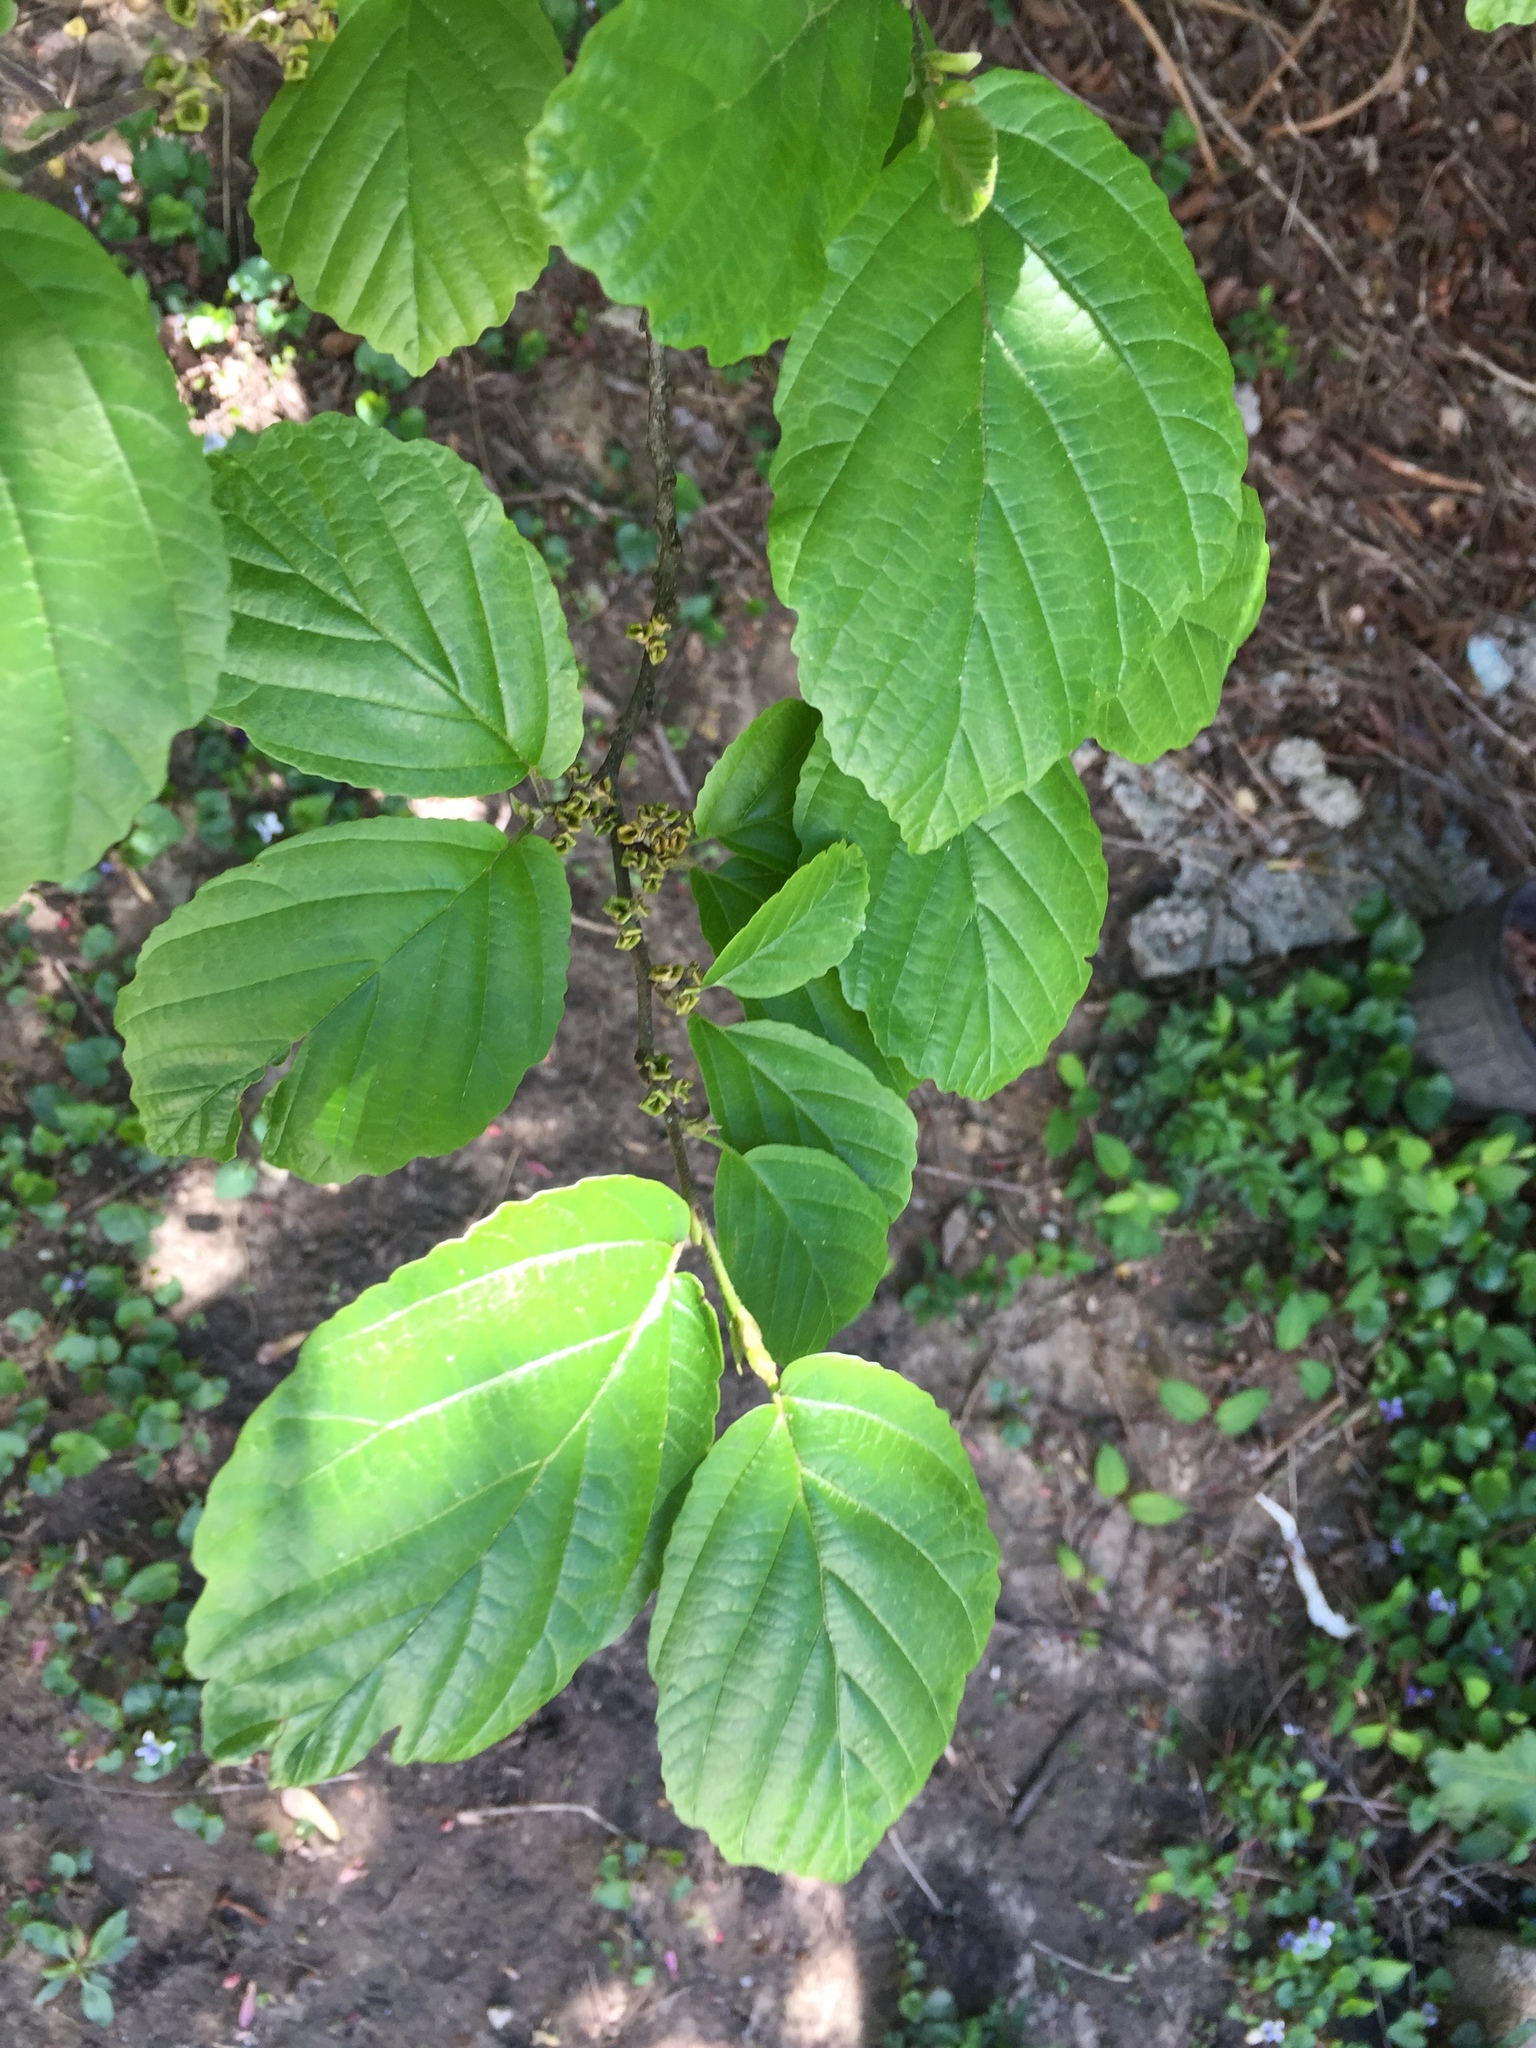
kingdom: Plantae
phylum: Tracheophyta
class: Magnoliopsida
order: Saxifragales
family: Hamamelidaceae
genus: Hamamelis
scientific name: Hamamelis virginiana
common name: Witch-hazel
